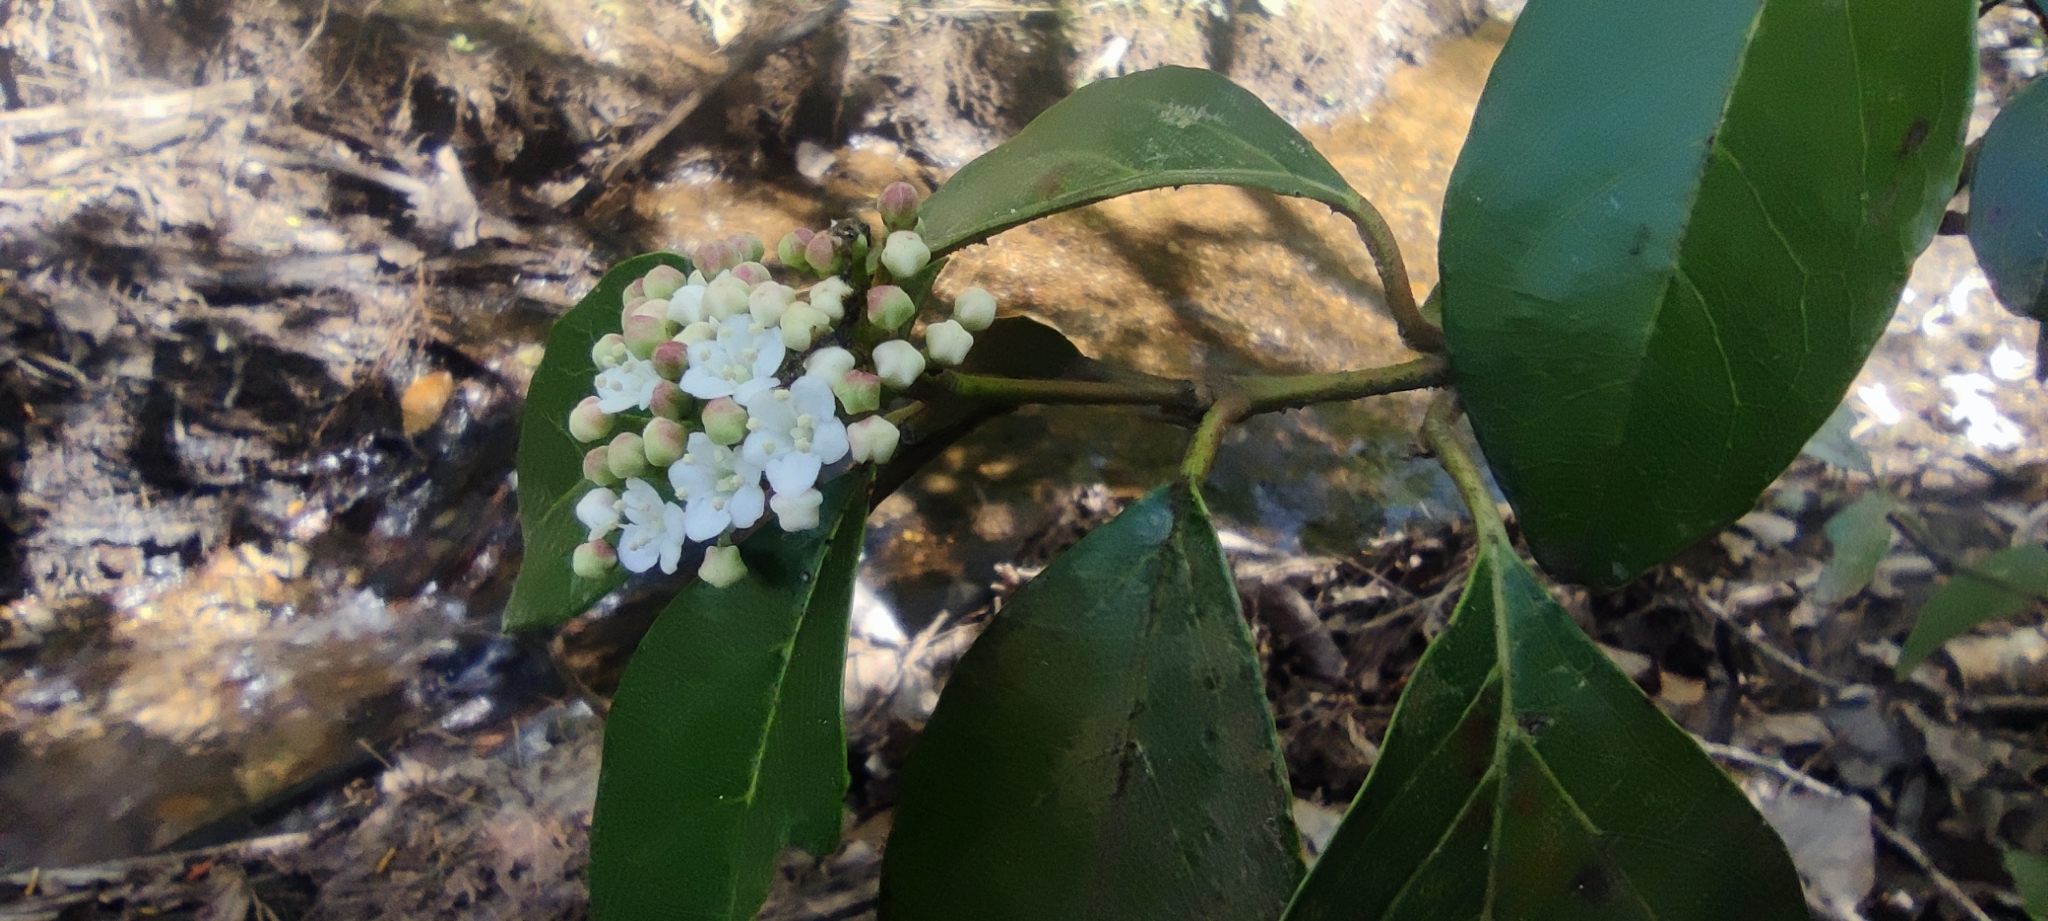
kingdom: Plantae
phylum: Tracheophyta
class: Magnoliopsida
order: Dipsacales
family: Viburnaceae
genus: Viburnum
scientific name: Viburnum tinus
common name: Laurustinus
